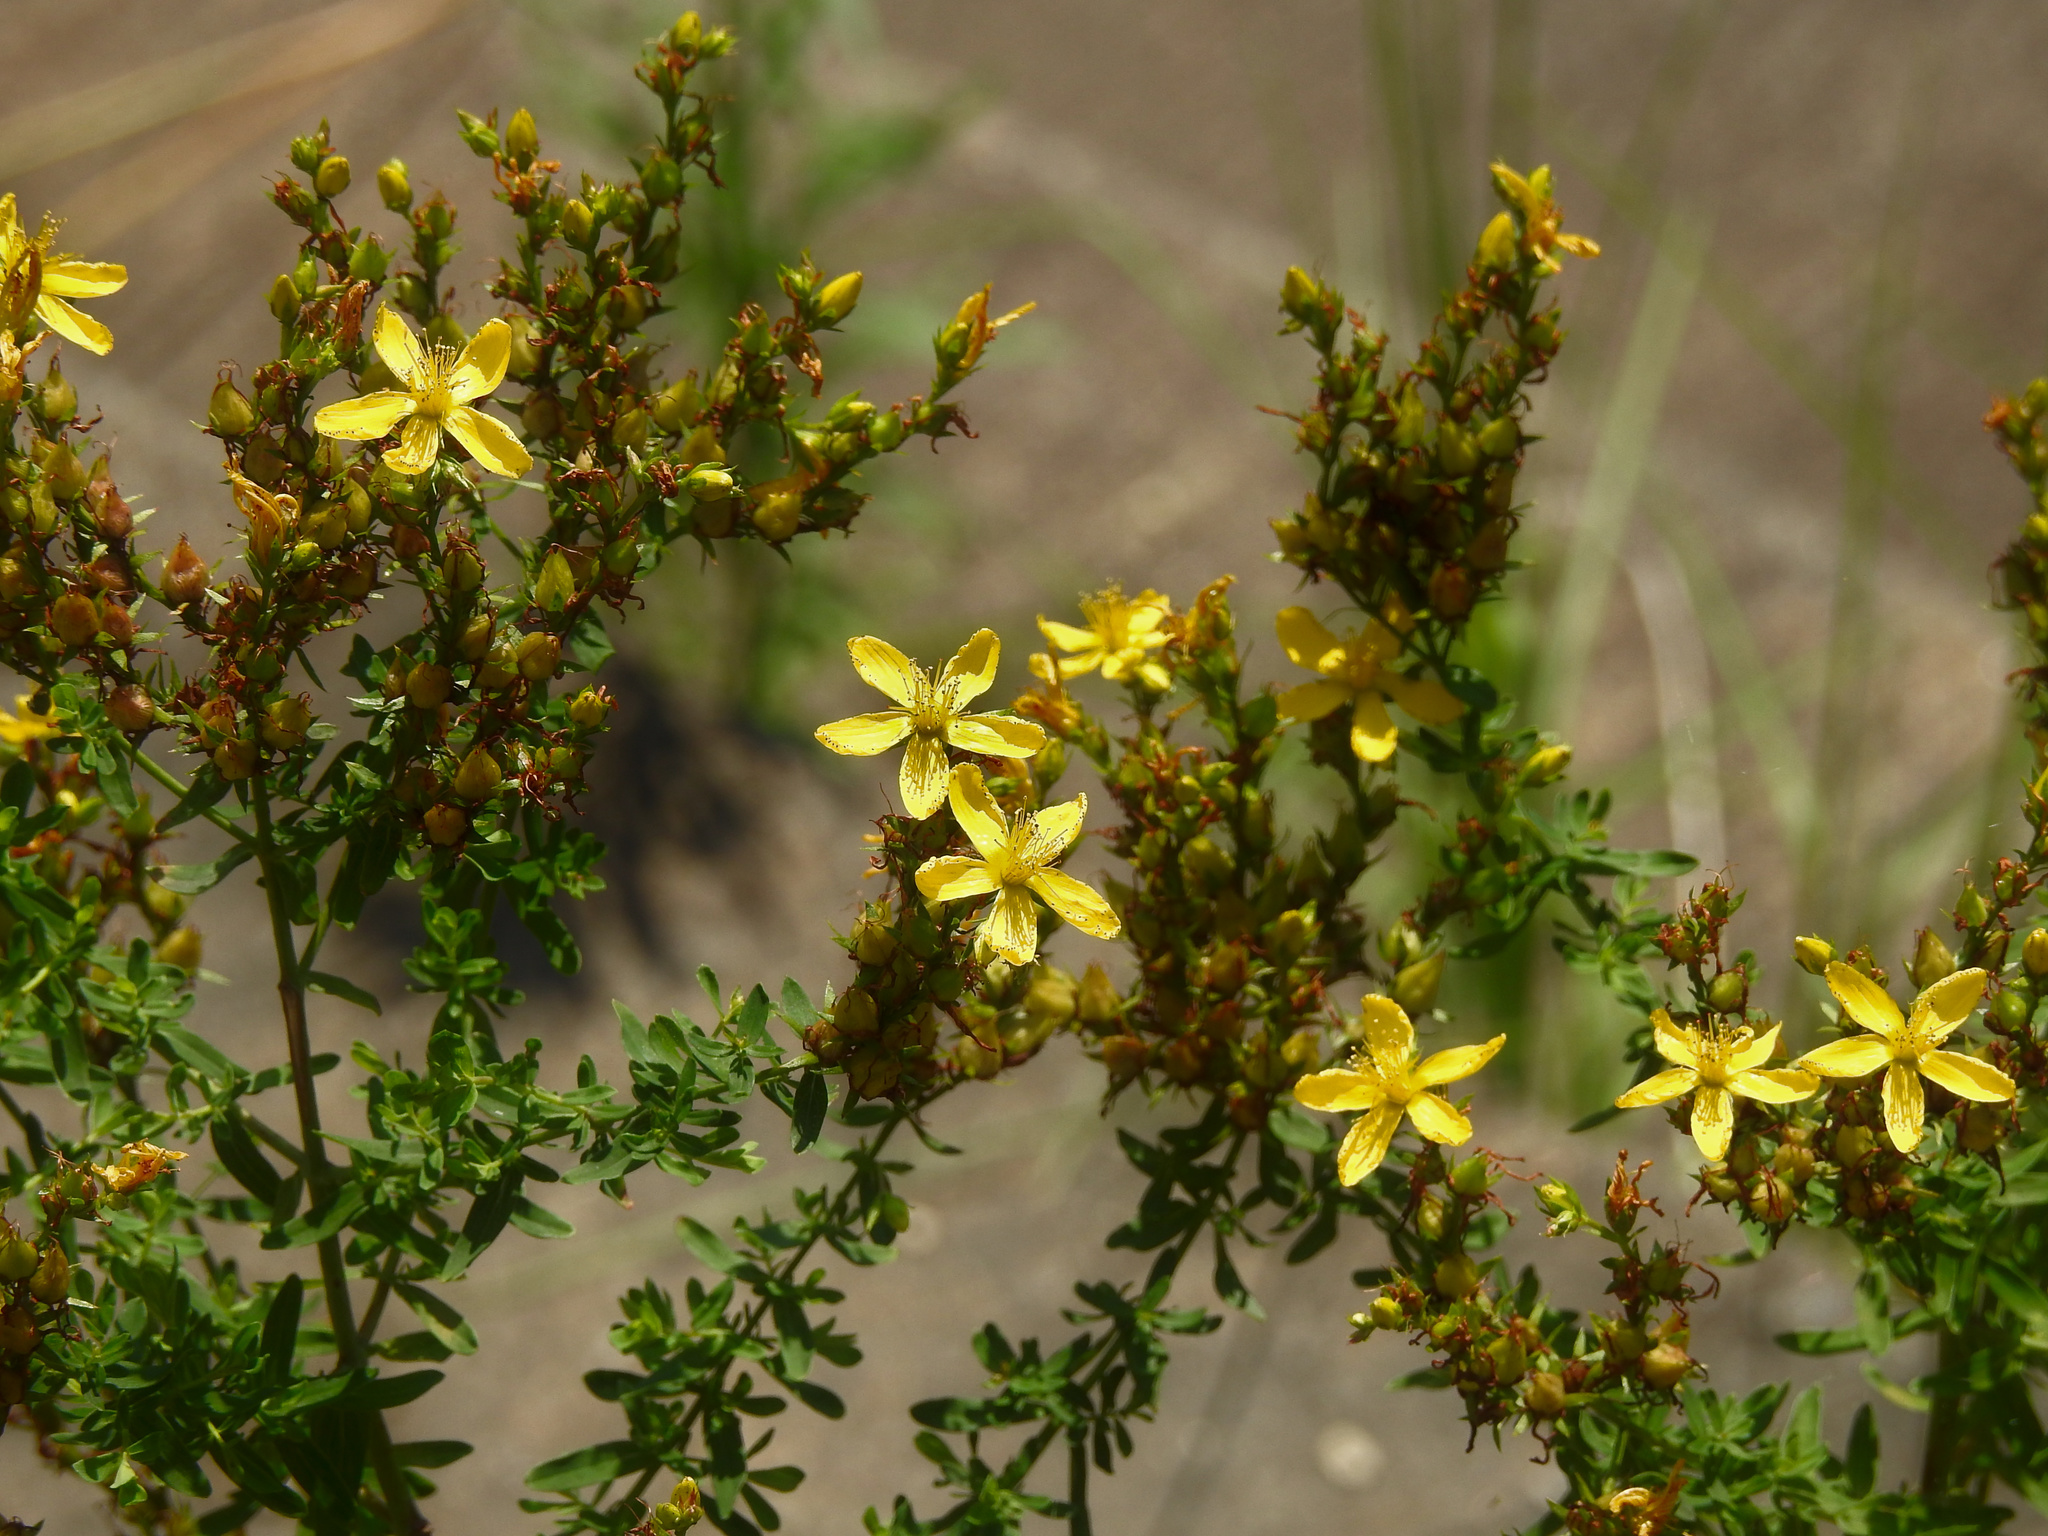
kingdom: Plantae
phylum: Tracheophyta
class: Magnoliopsida
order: Malpighiales
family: Hypericaceae
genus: Hypericum
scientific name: Hypericum perforatum
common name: Common st. johnswort
